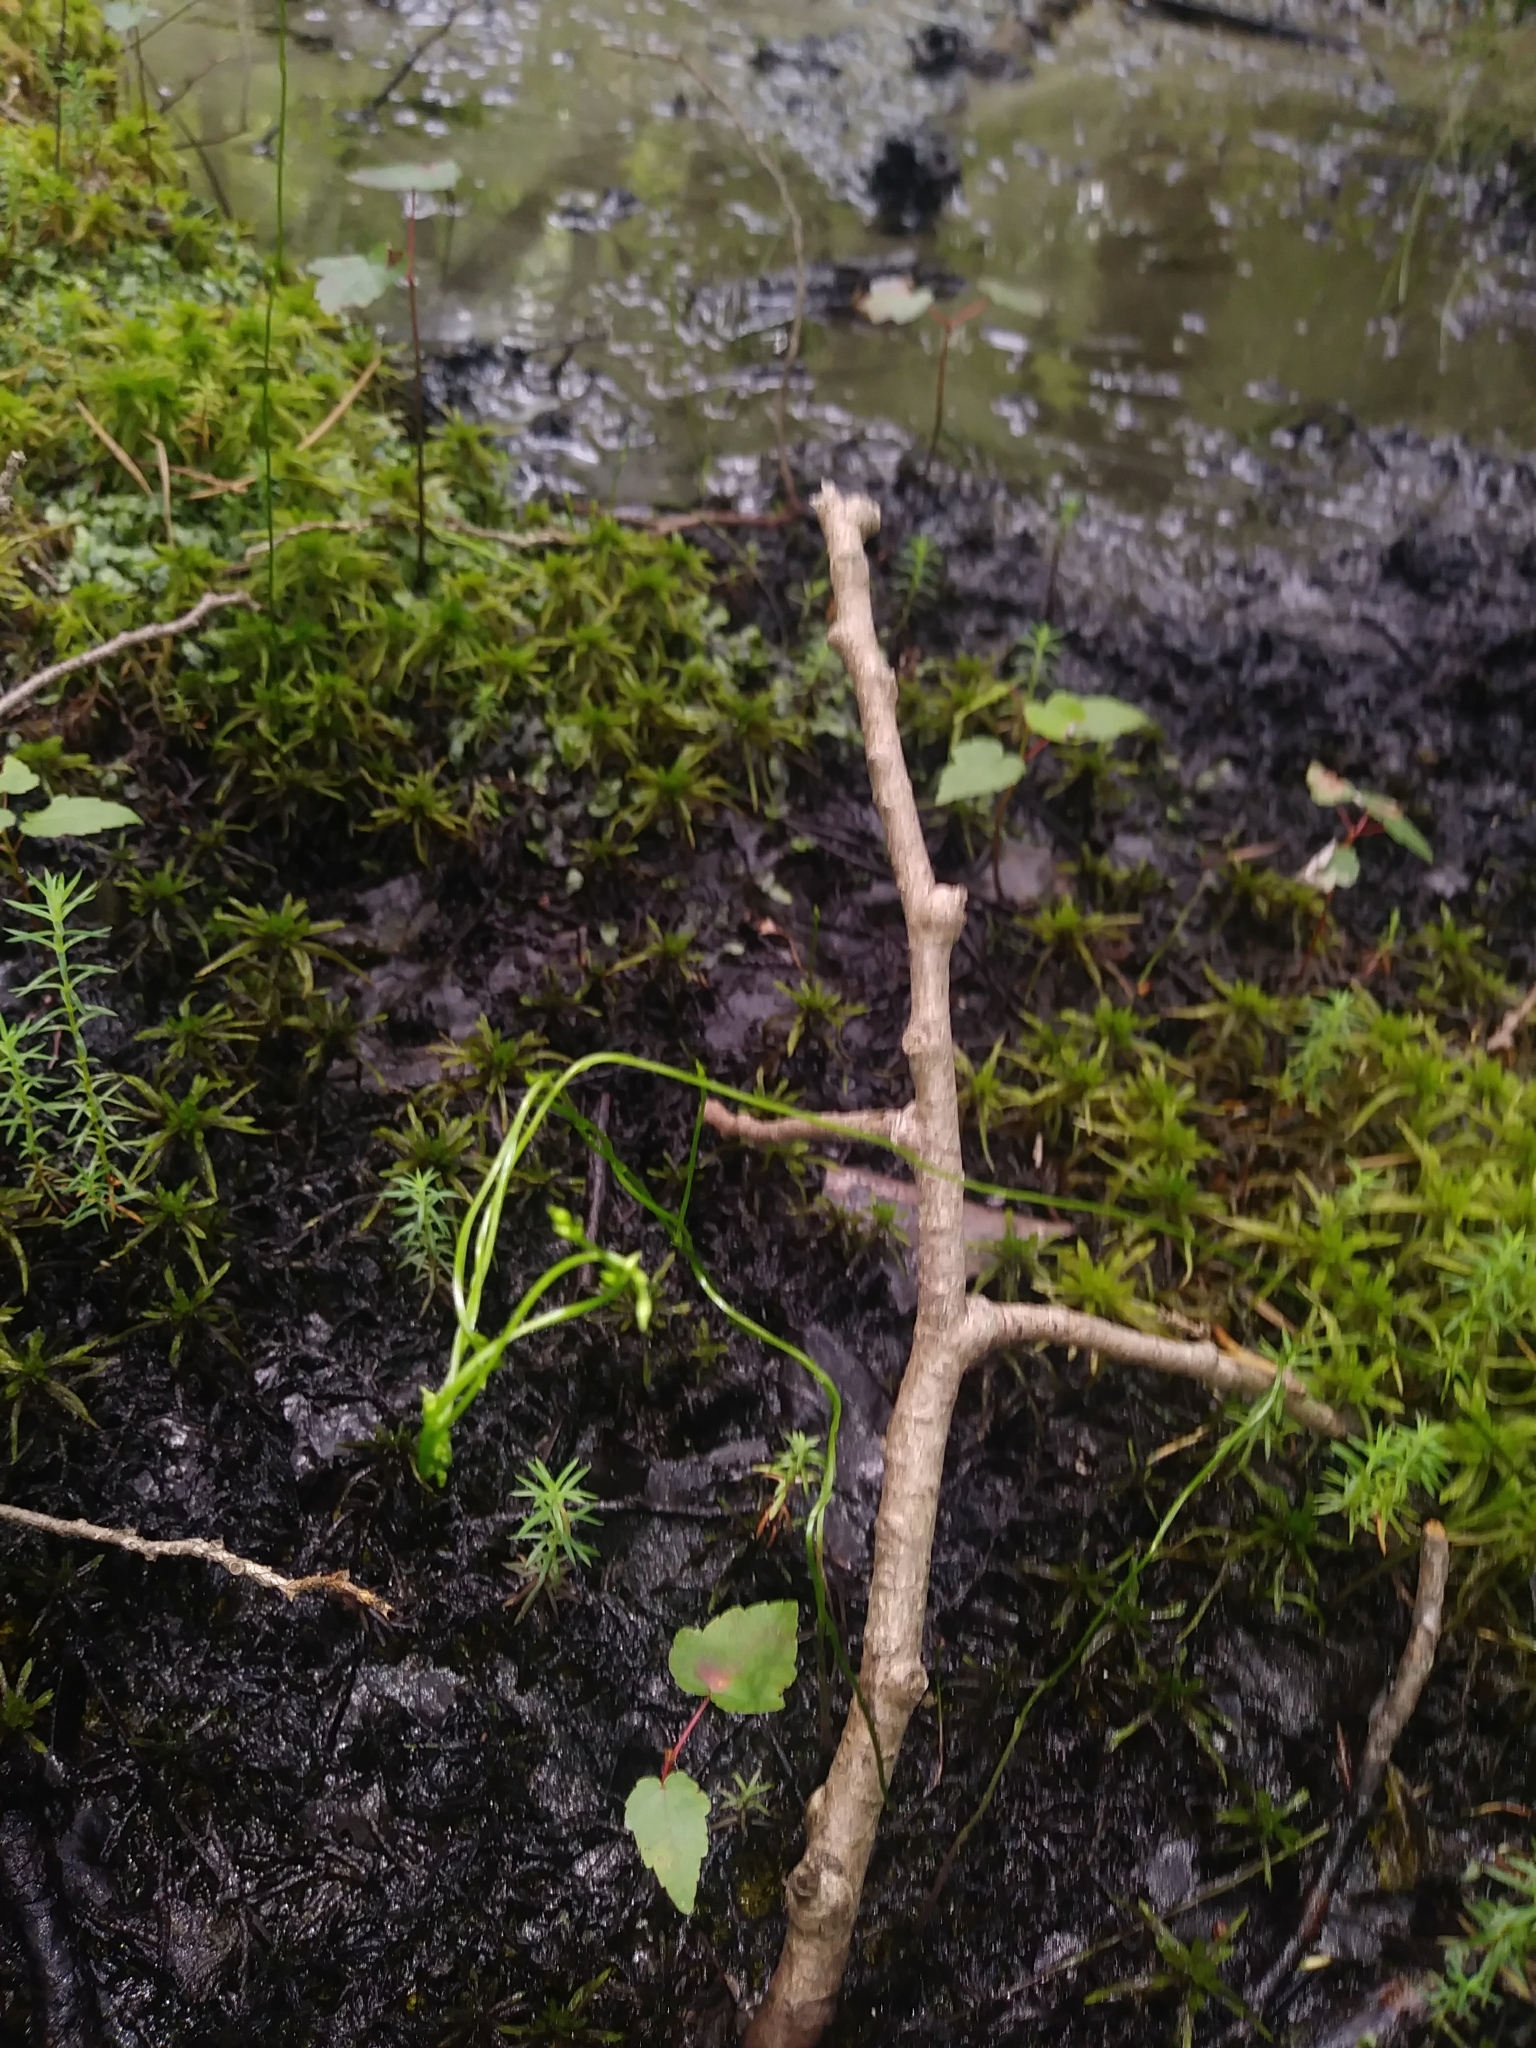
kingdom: Plantae
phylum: Tracheophyta
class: Magnoliopsida
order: Gentianales
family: Gentianaceae
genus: Bartonia
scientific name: Bartonia paniculata
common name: Branched bartonia
